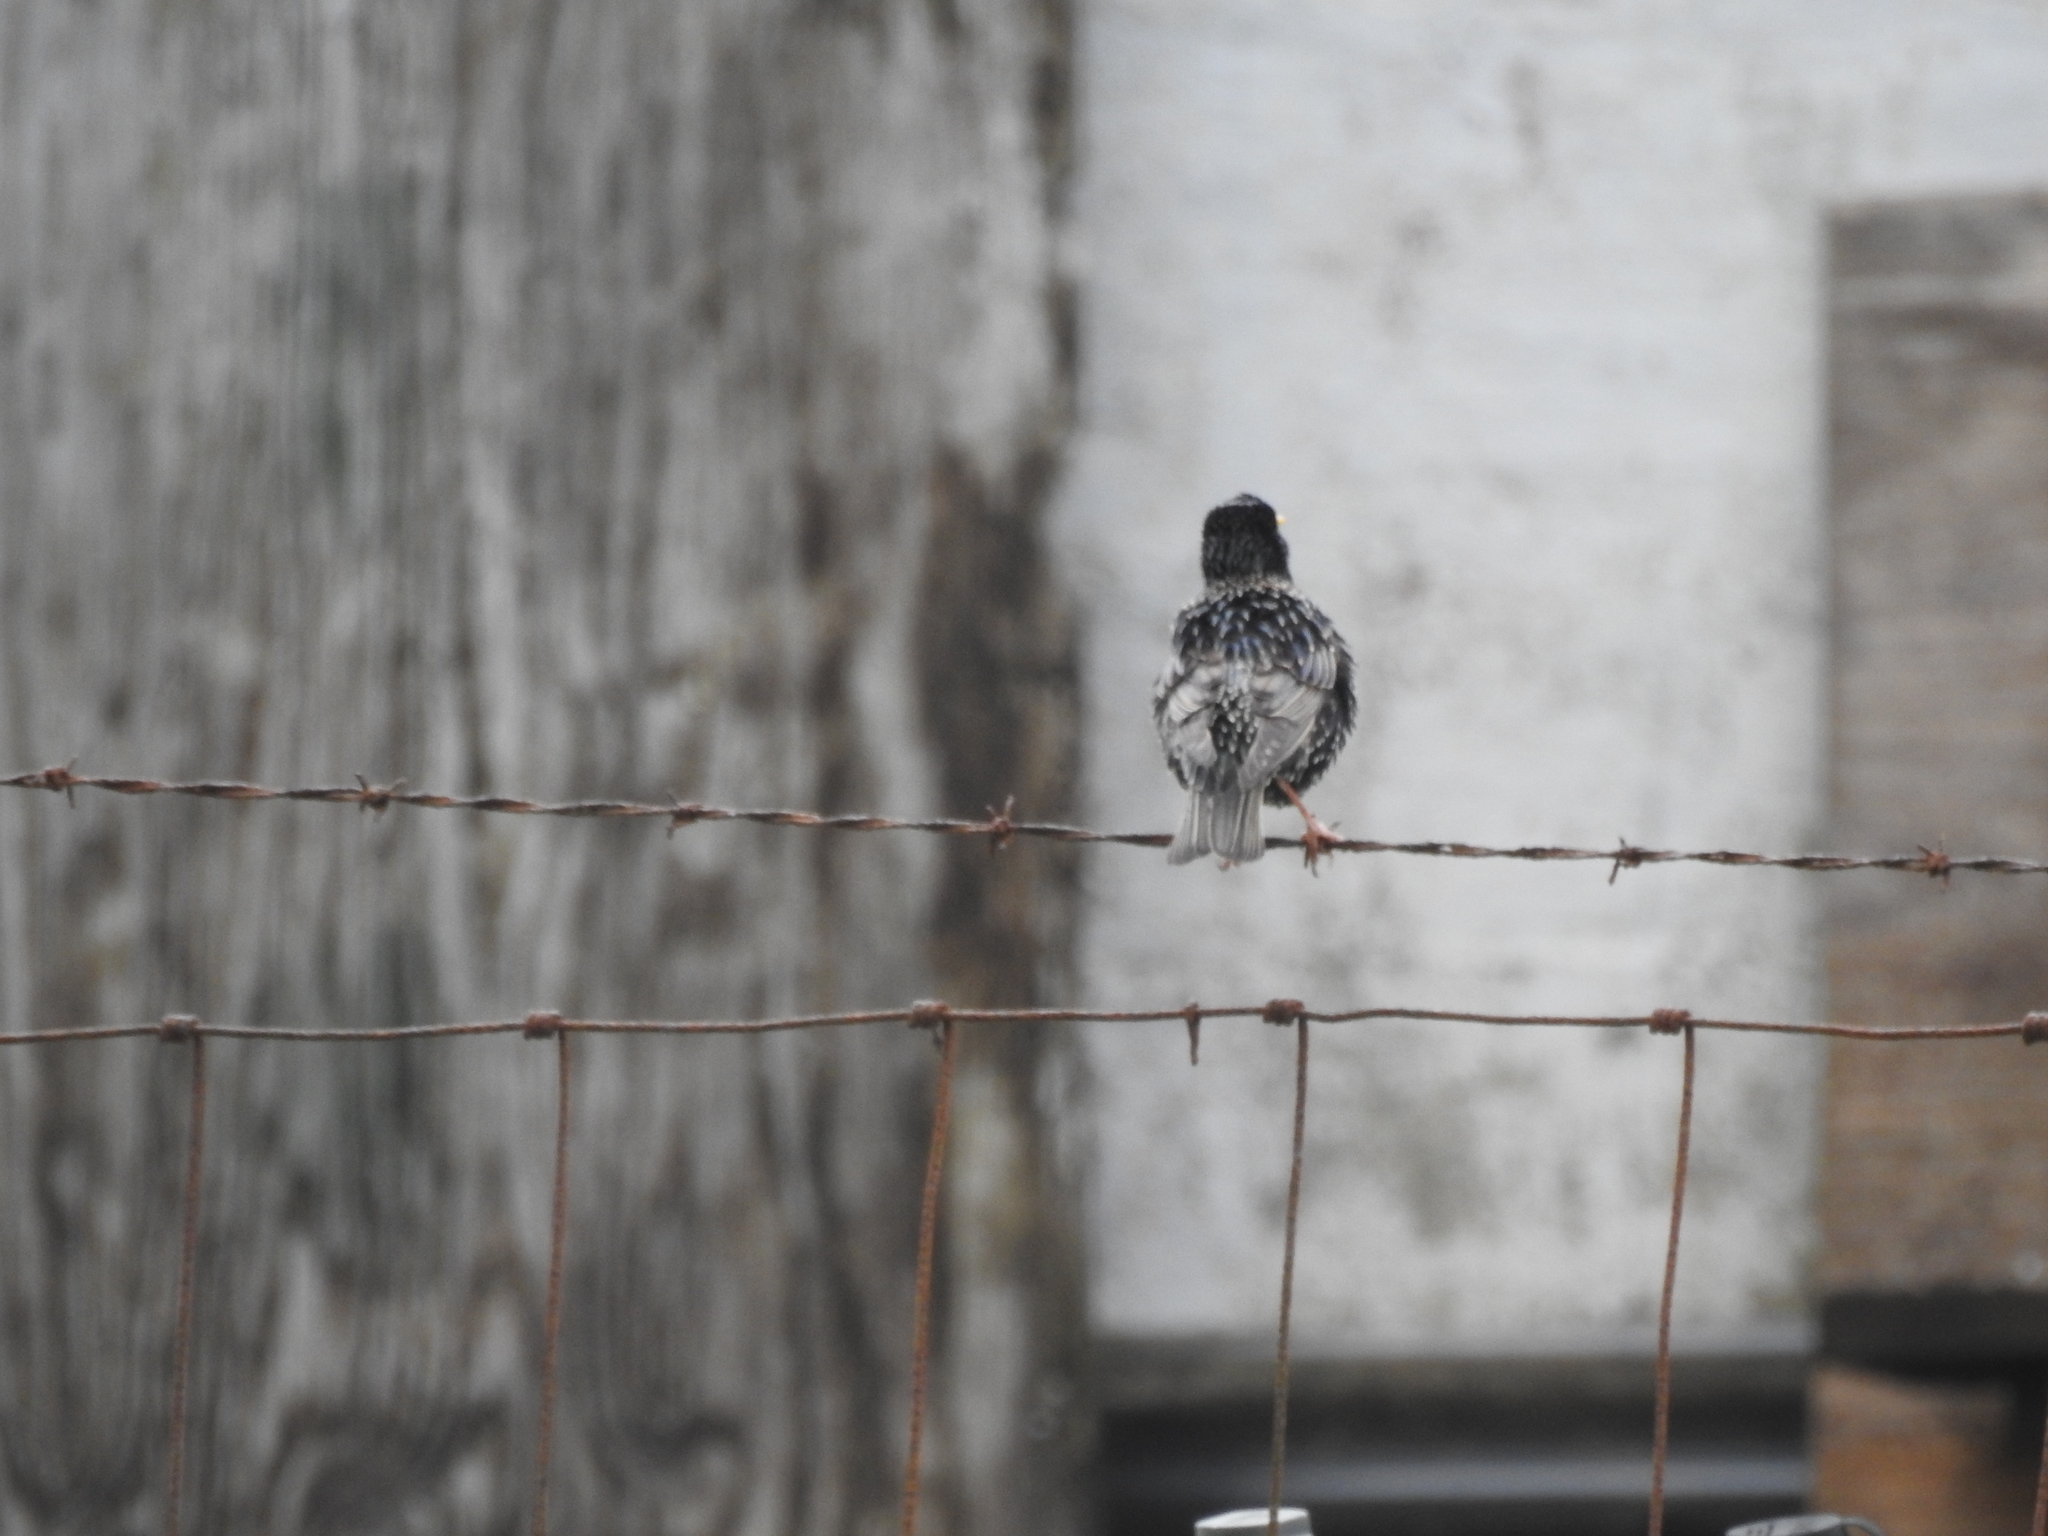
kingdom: Animalia
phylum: Chordata
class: Aves
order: Passeriformes
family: Sturnidae
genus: Sturnus
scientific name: Sturnus vulgaris
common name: Common starling
